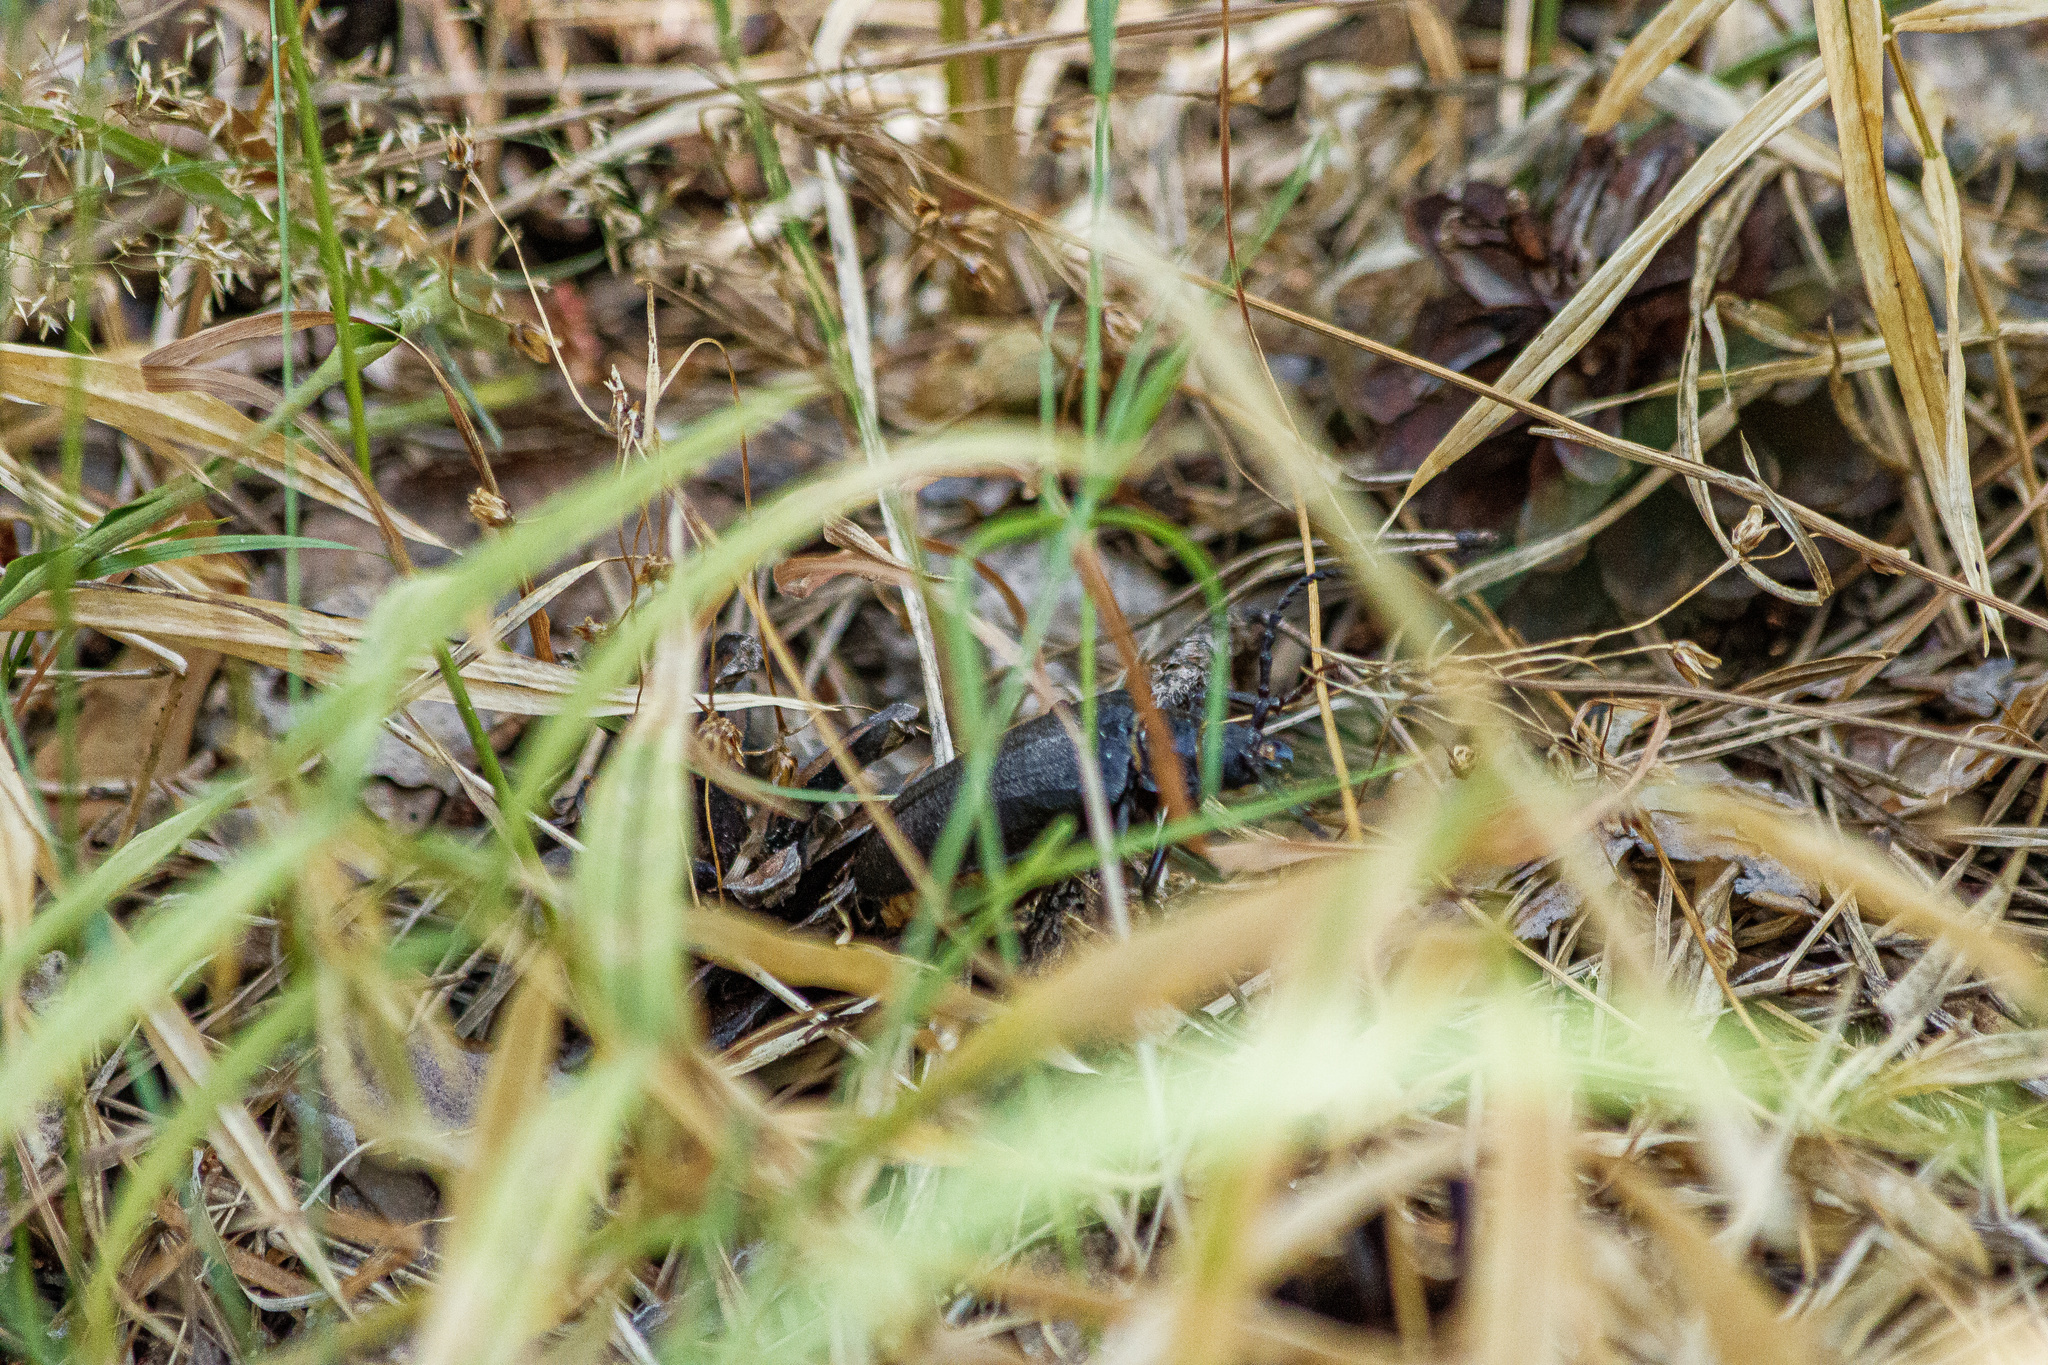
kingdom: Animalia
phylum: Arthropoda
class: Insecta
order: Coleoptera
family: Cerambycidae
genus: Prionus
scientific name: Prionus coriarius
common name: Tanner beetle
